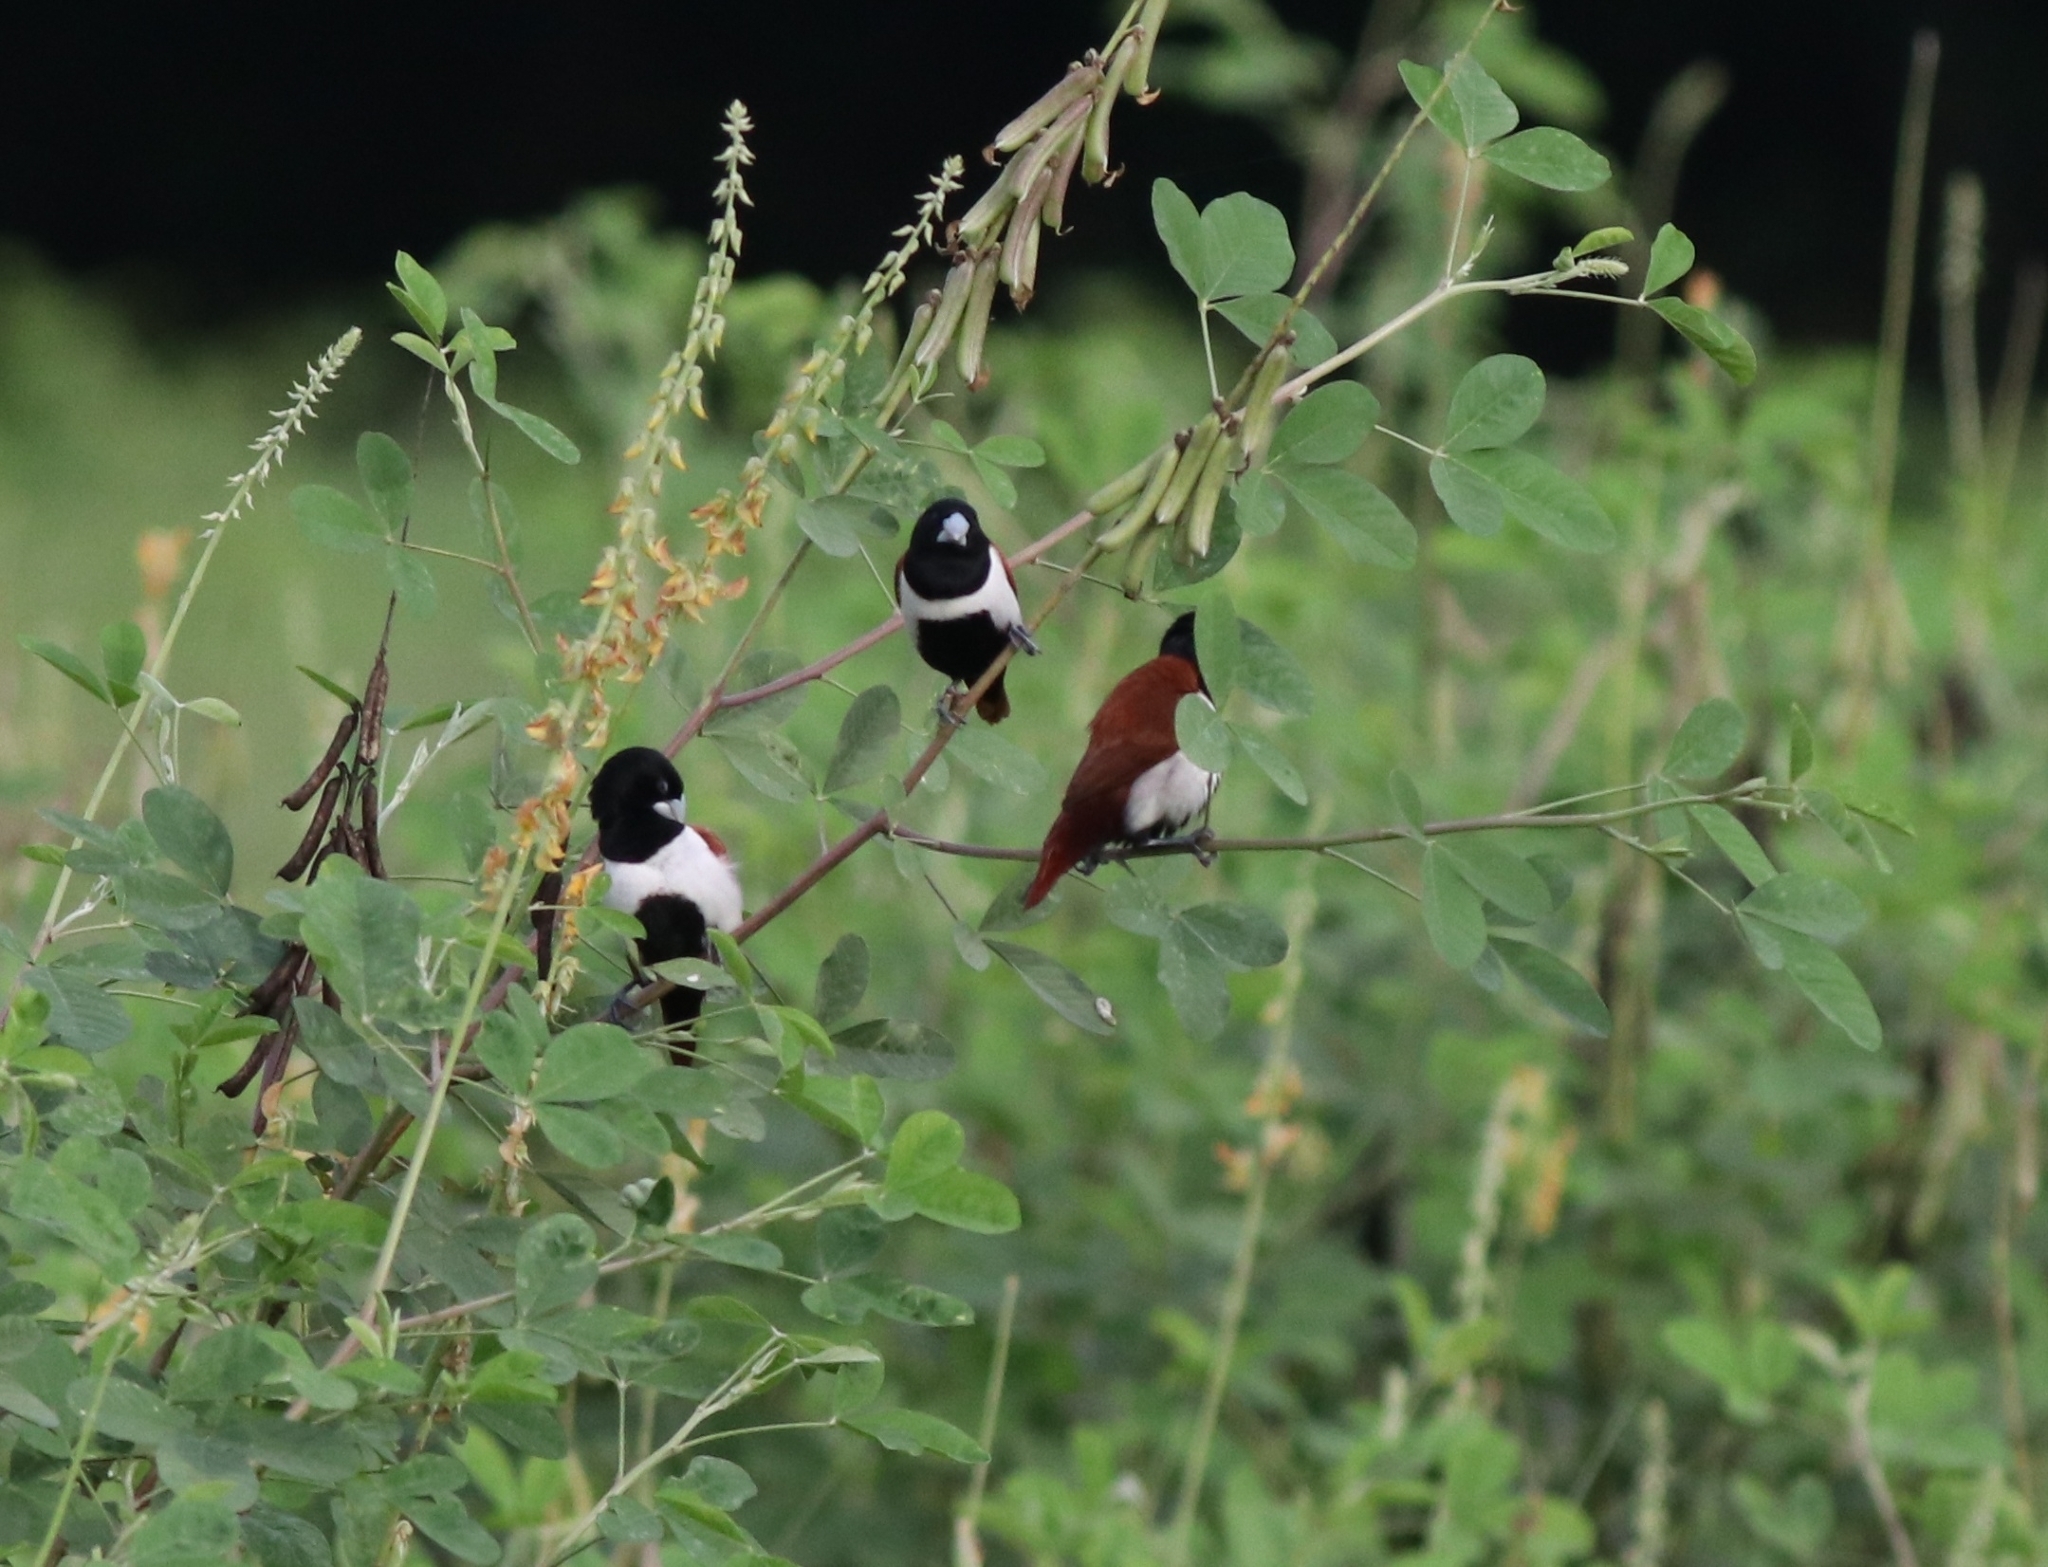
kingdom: Animalia
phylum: Chordata
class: Aves
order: Passeriformes
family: Estrildidae
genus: Lonchura
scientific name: Lonchura malacca
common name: Tricolored munia
